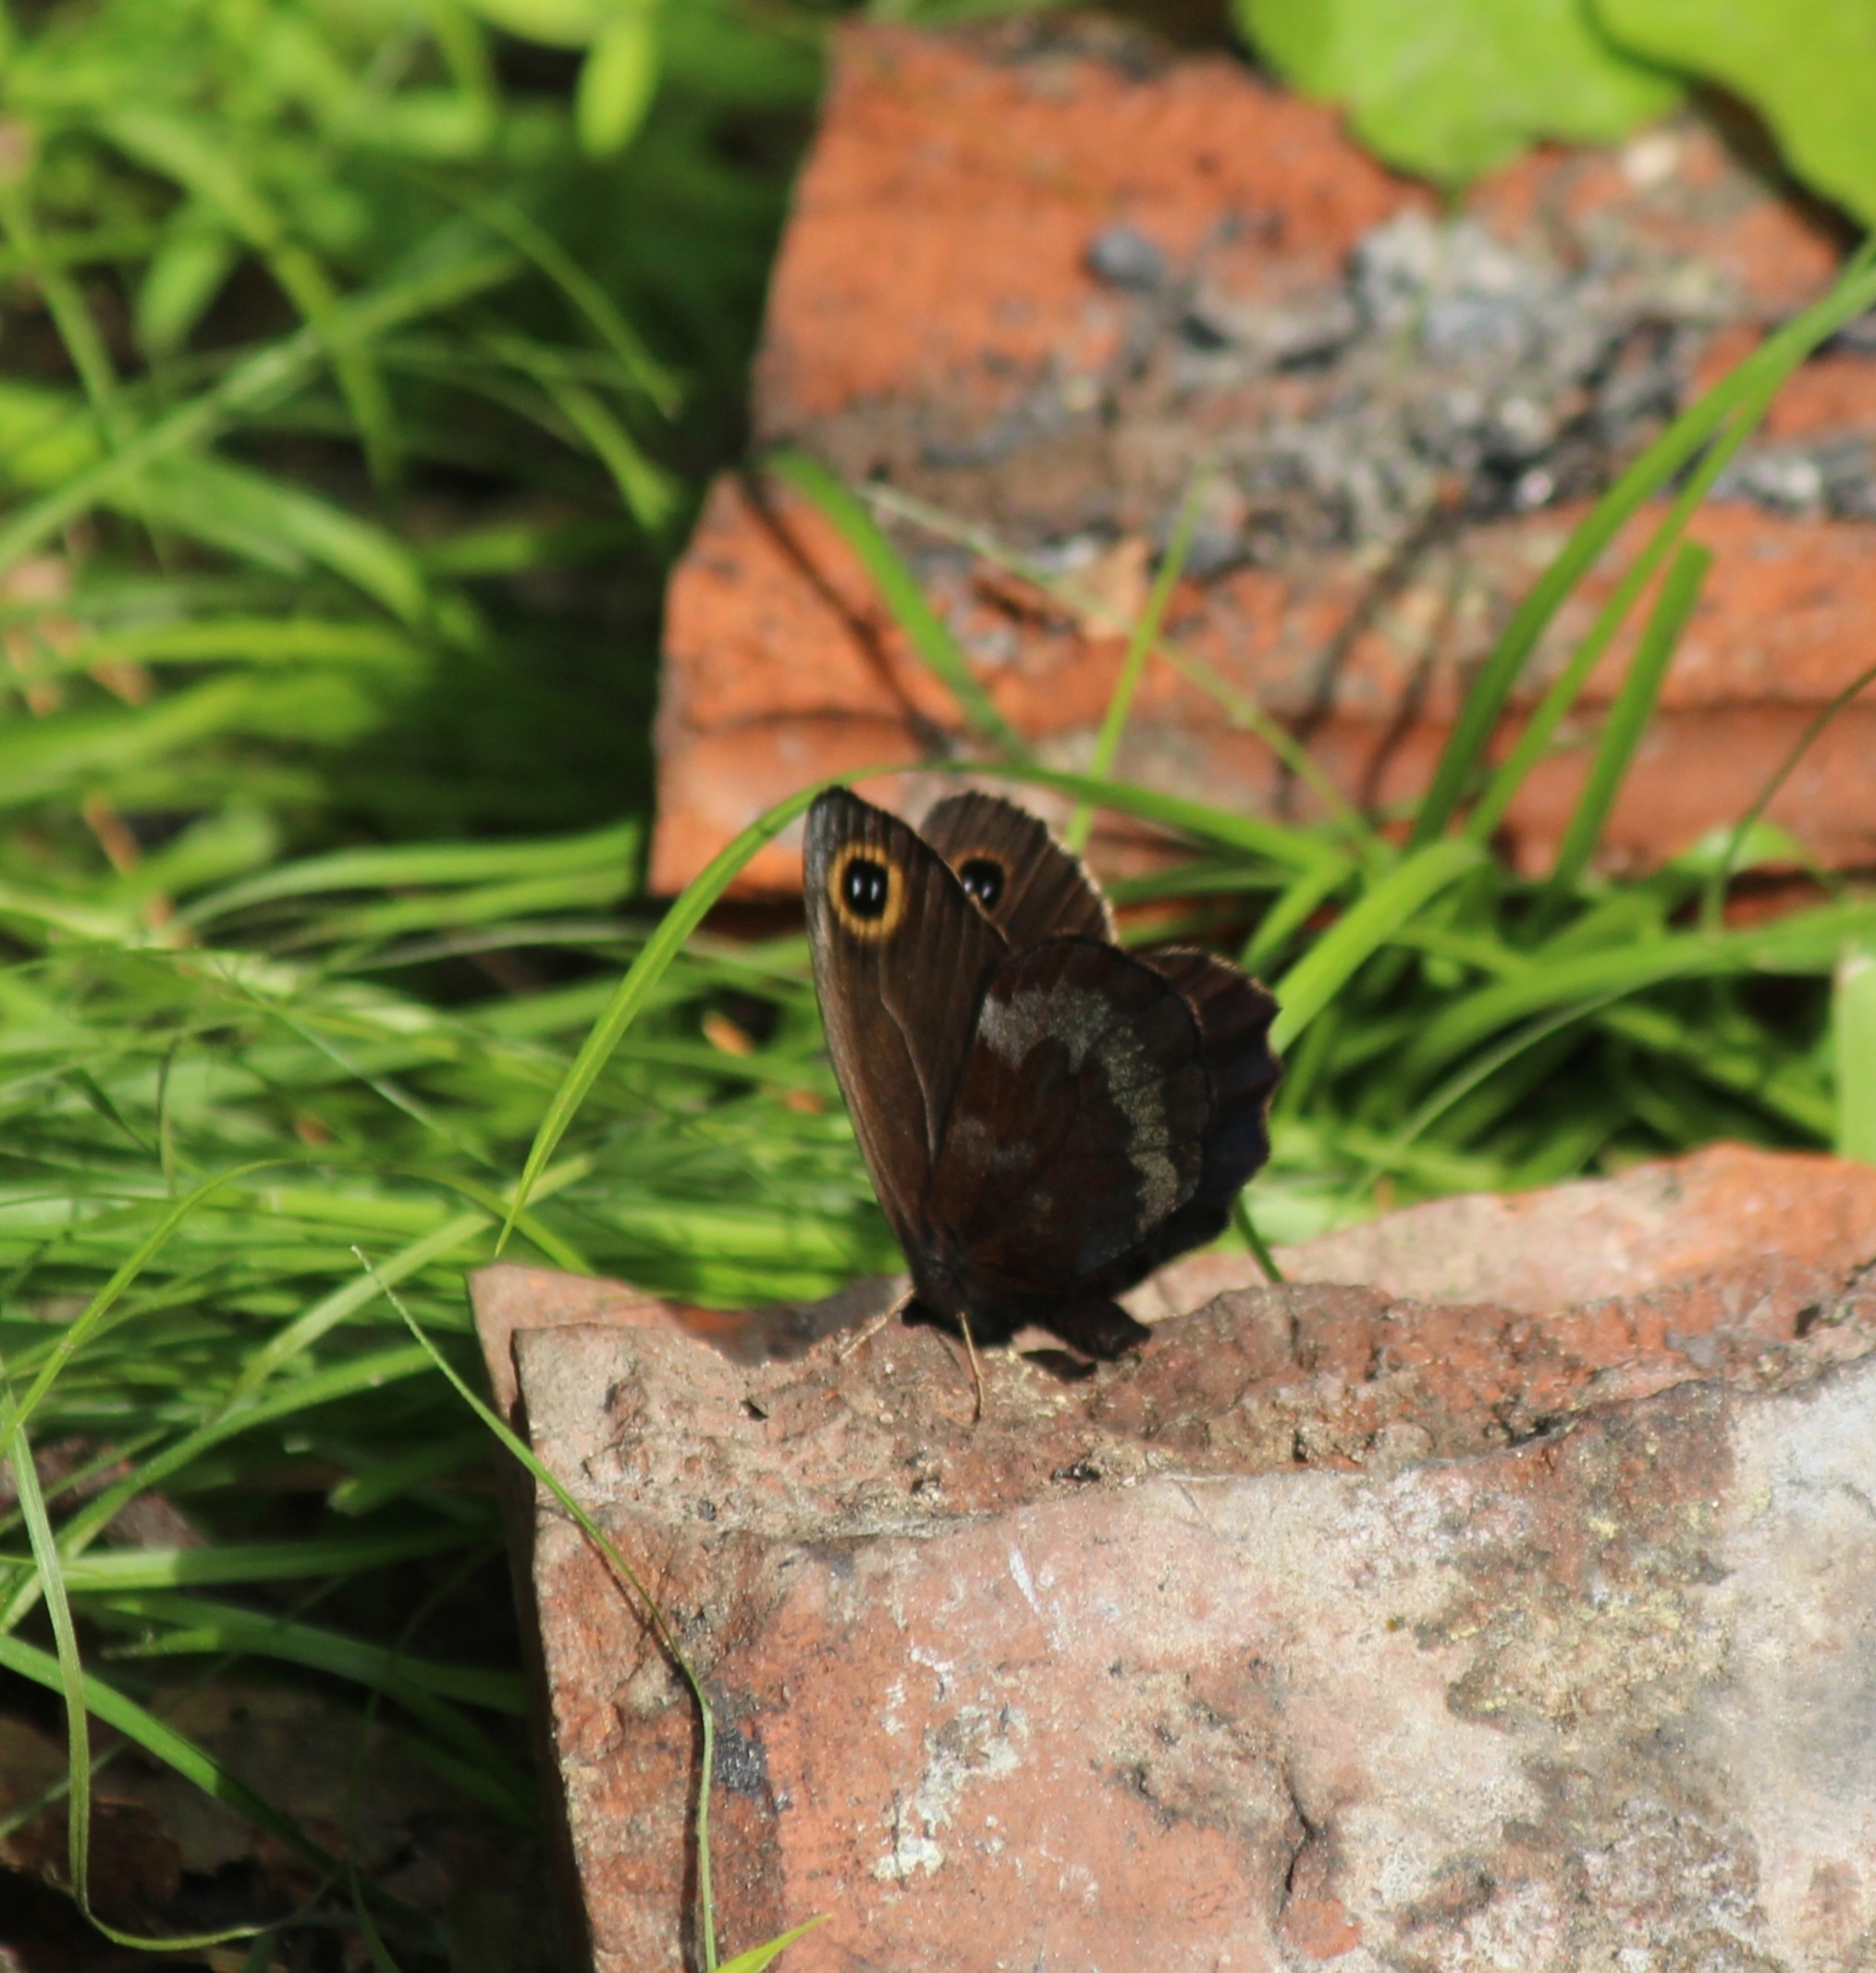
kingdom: Animalia
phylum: Arthropoda
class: Insecta
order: Lepidoptera
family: Nymphalidae
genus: Erebia
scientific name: Erebia cyclopius
